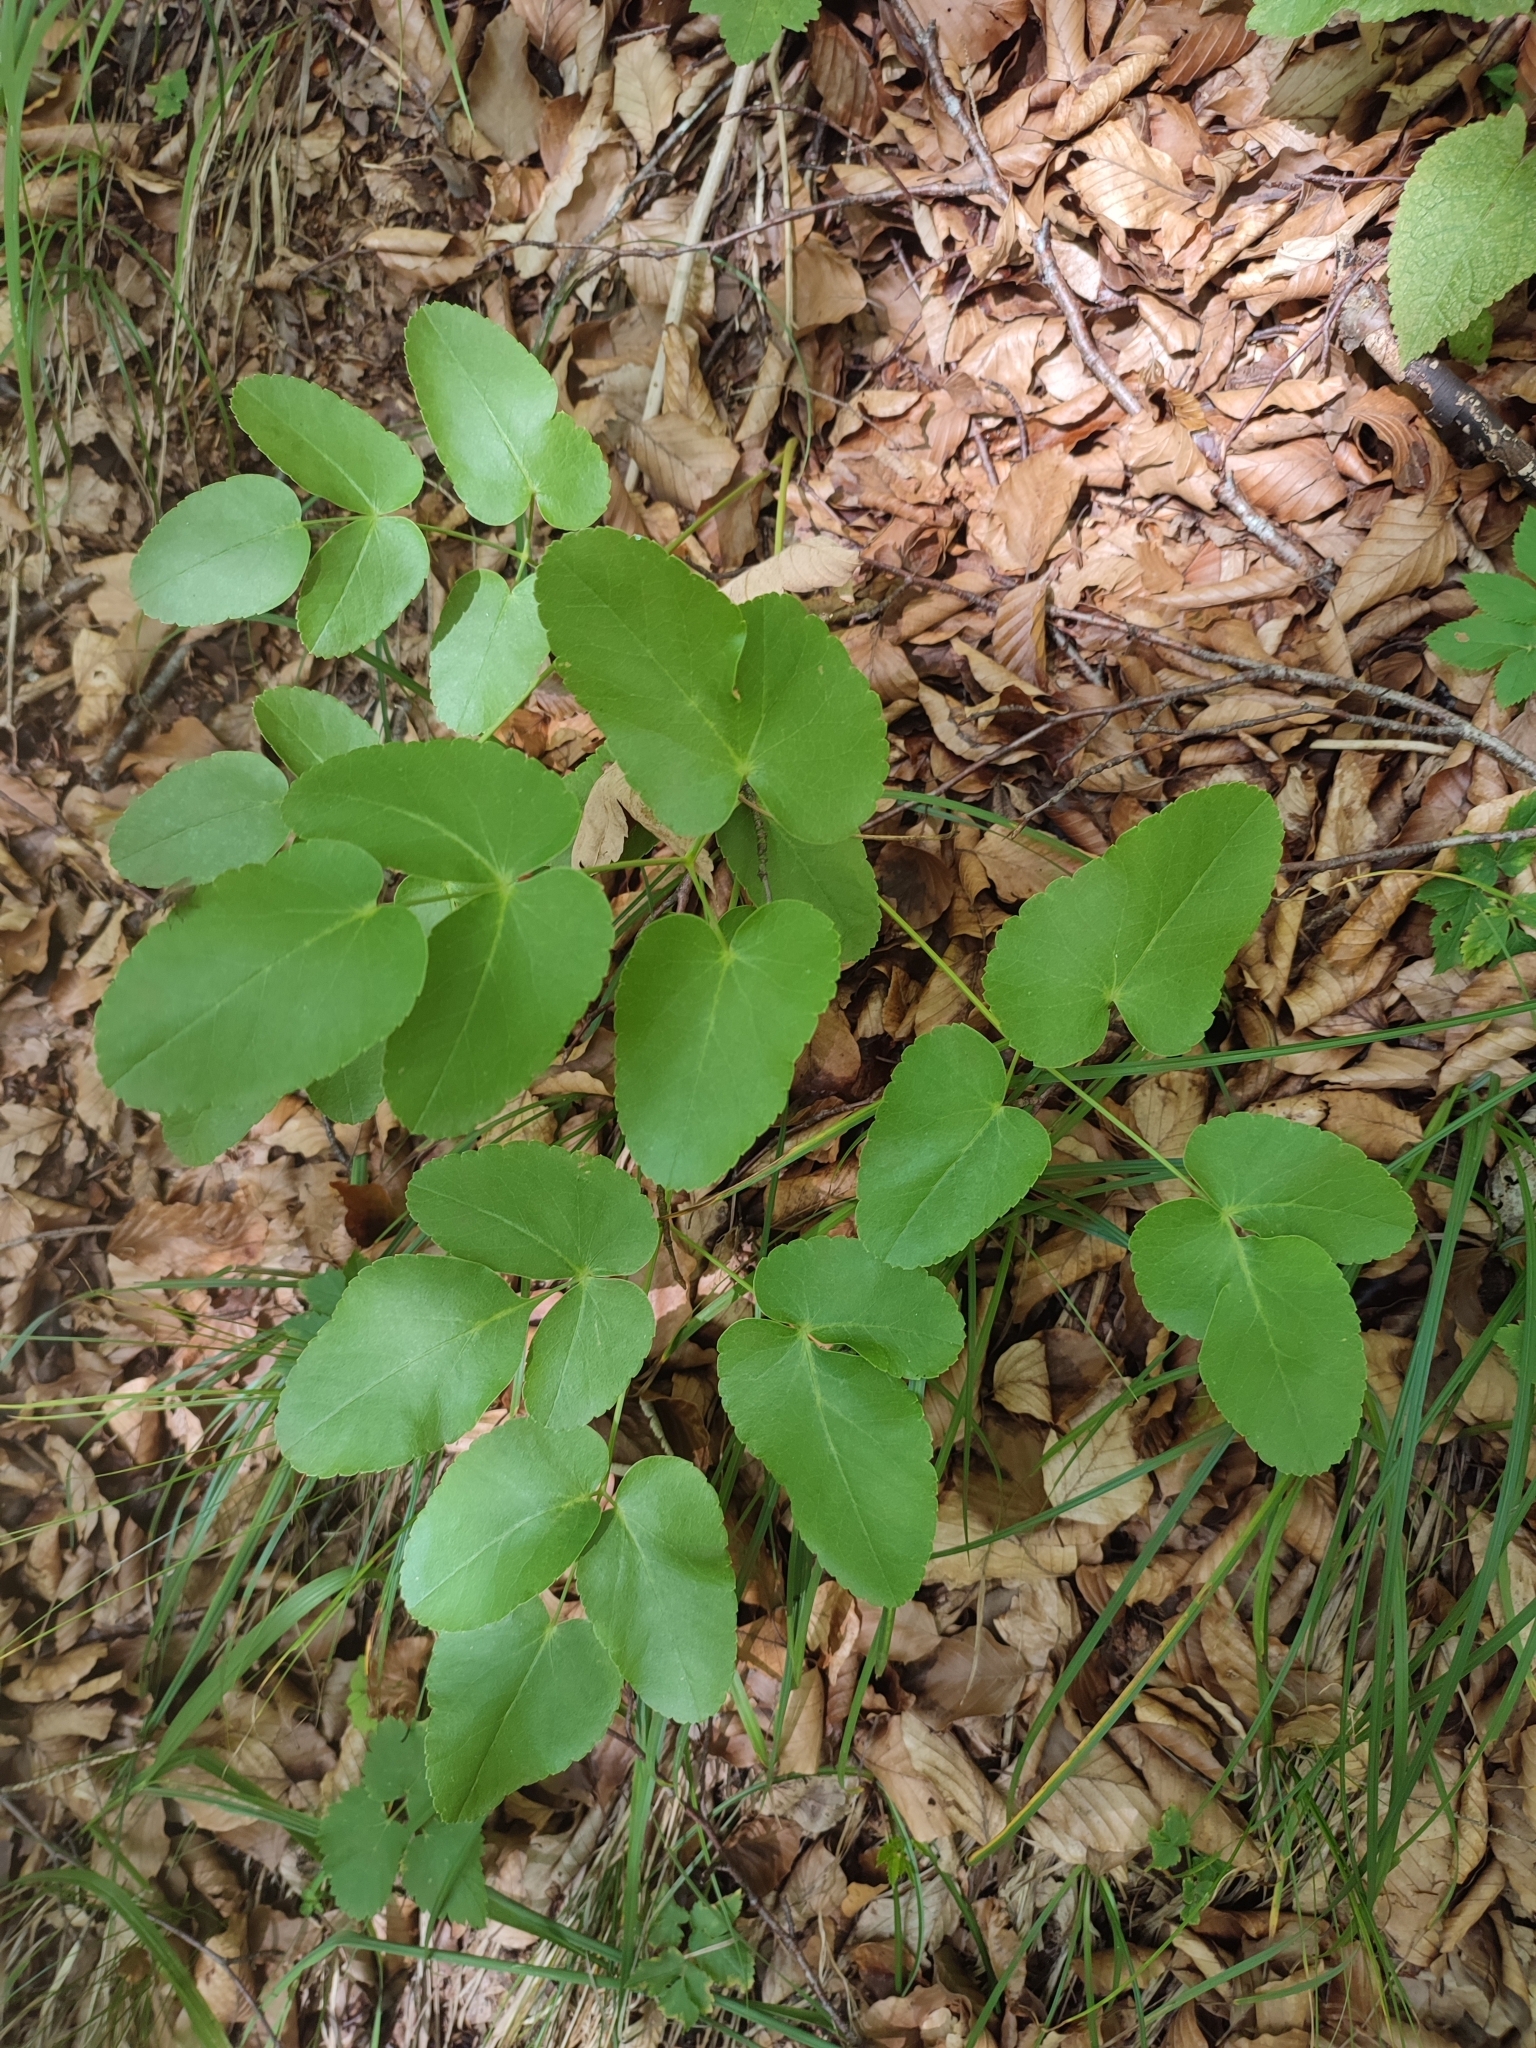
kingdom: Plantae
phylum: Tracheophyta
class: Magnoliopsida
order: Apiales
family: Apiaceae
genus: Laserpitium
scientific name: Laserpitium latifolium
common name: Broadleaf sermountain
